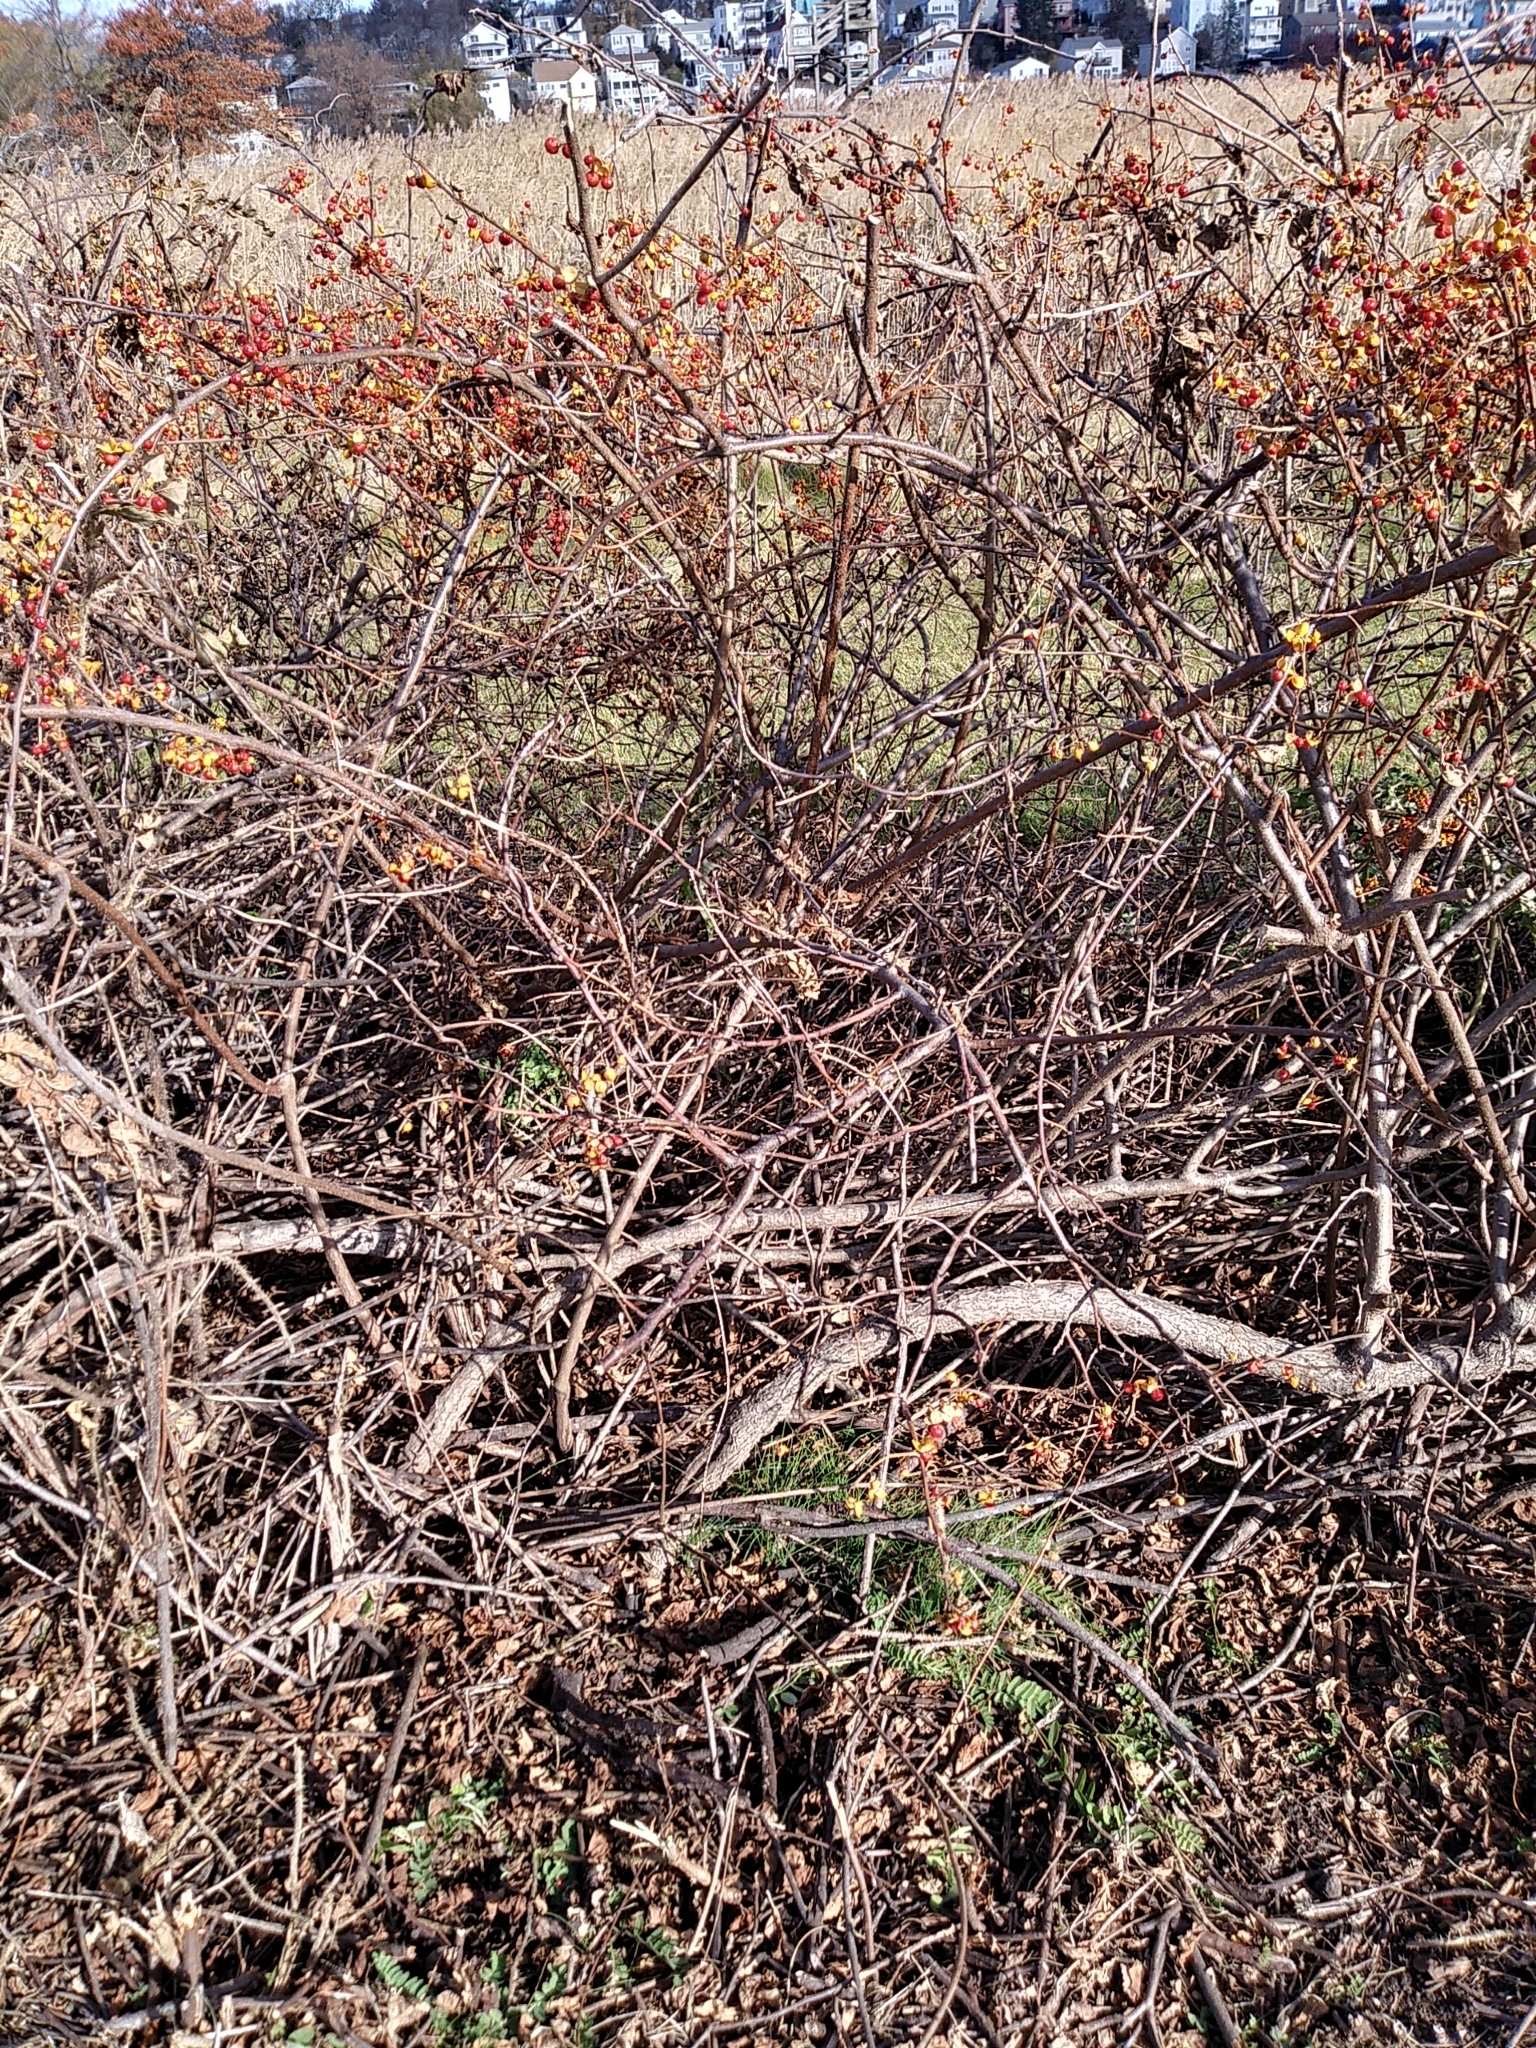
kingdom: Plantae
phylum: Tracheophyta
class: Magnoliopsida
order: Celastrales
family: Celastraceae
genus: Celastrus
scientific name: Celastrus orbiculatus
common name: Oriental bittersweet
